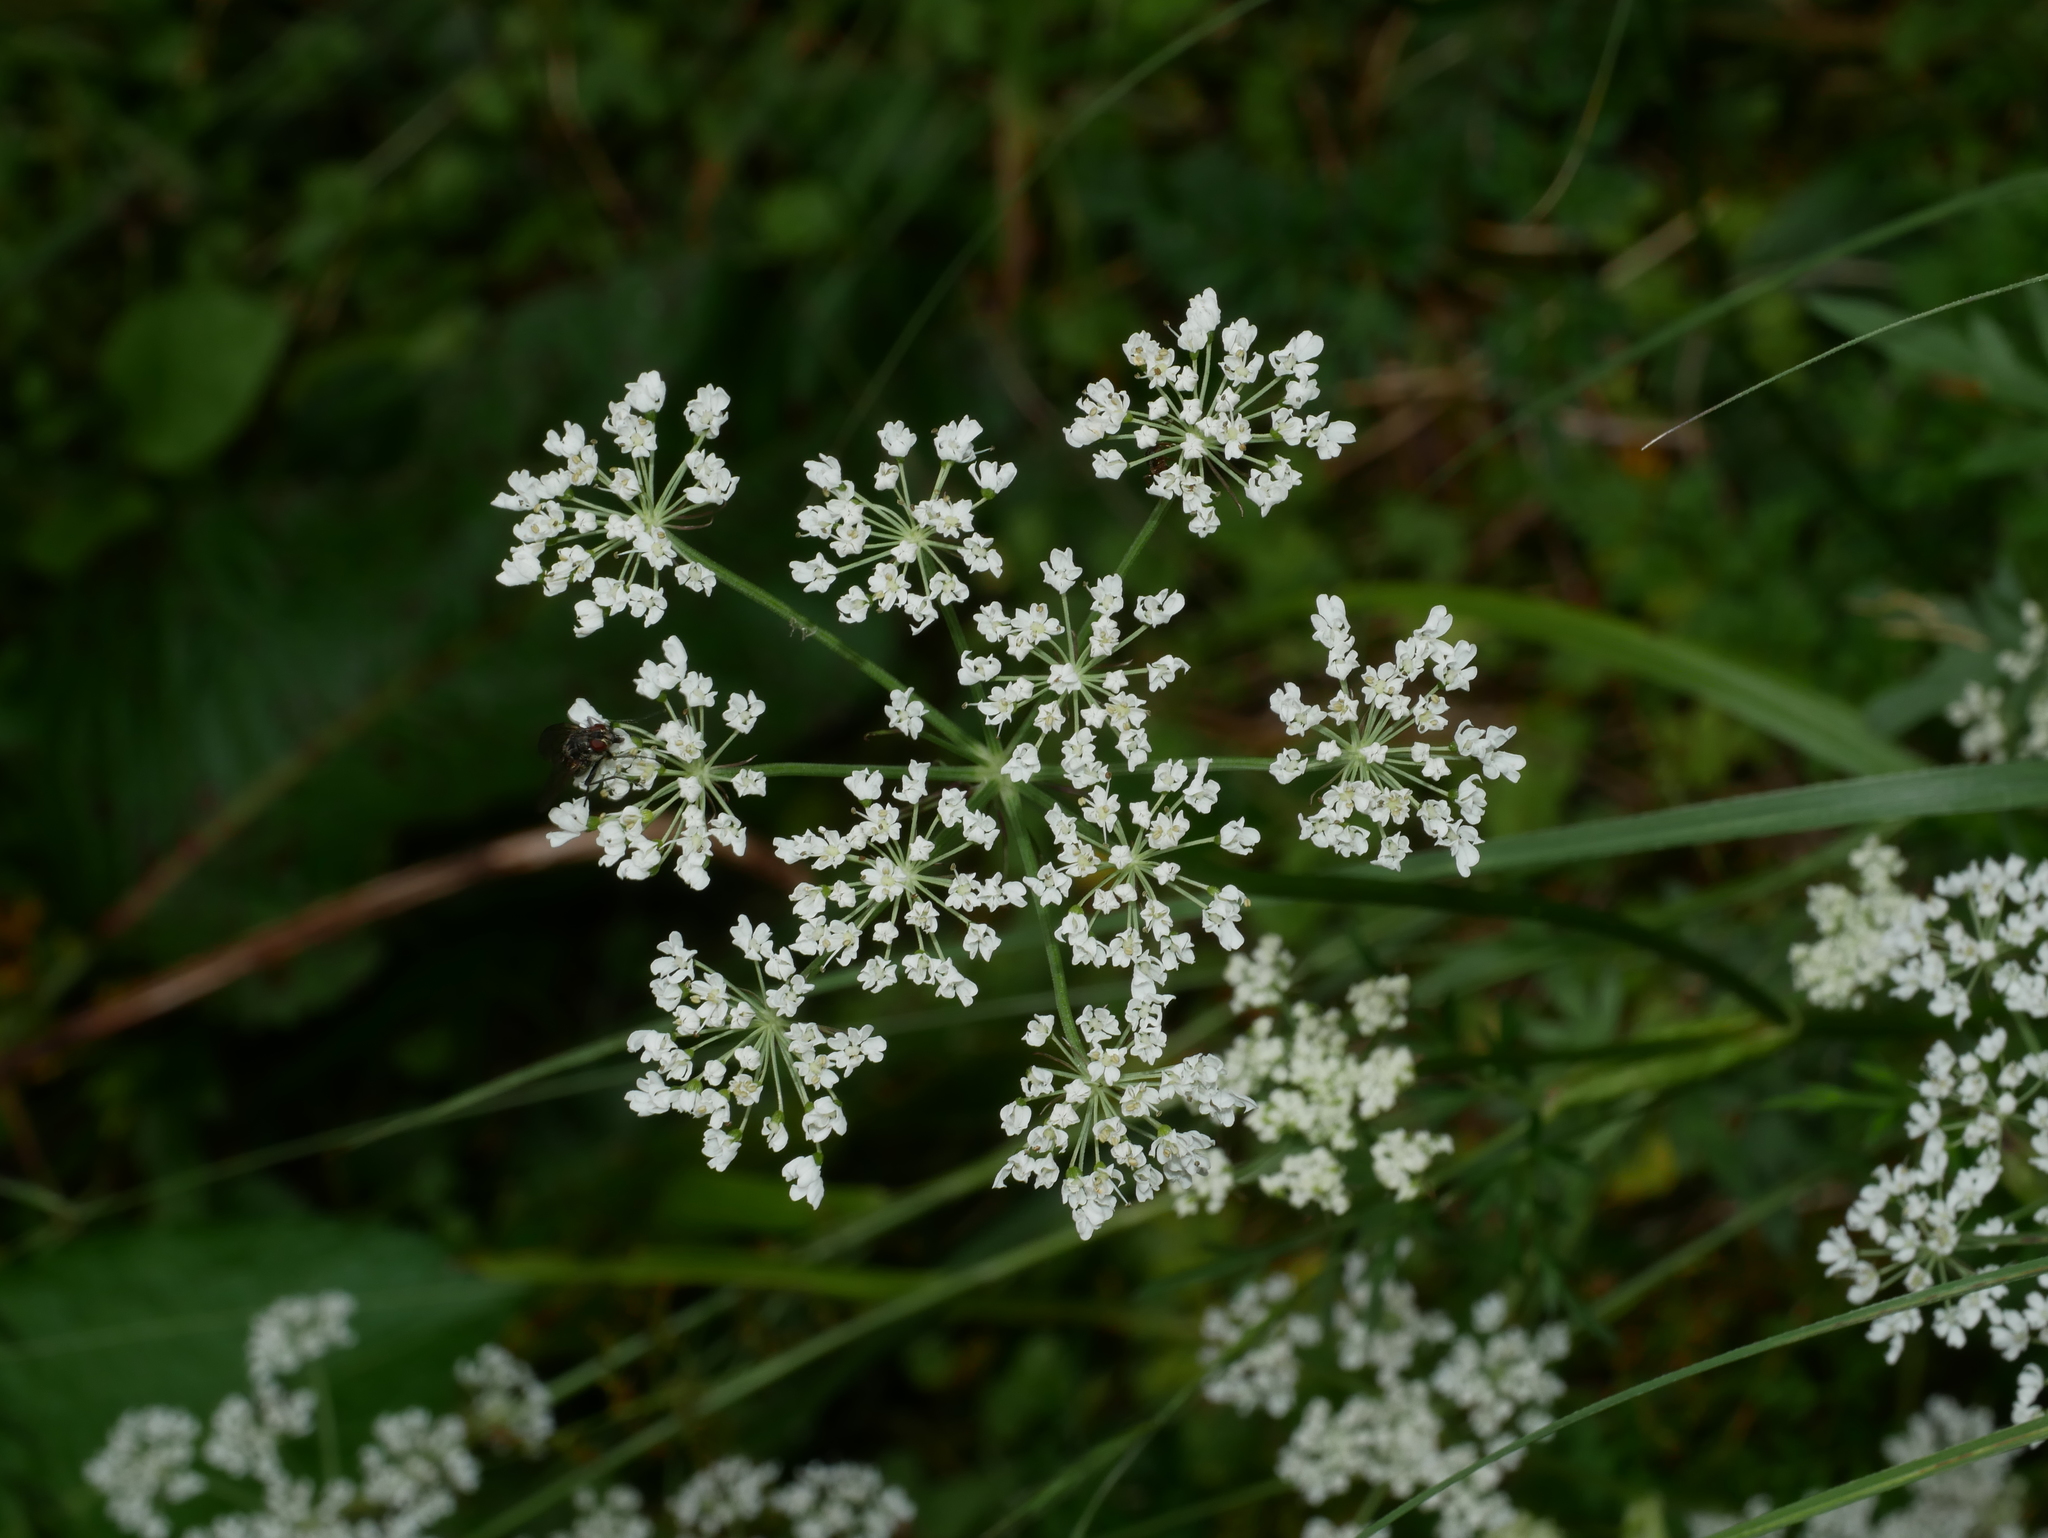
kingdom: Plantae
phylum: Tracheophyta
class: Magnoliopsida
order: Apiales
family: Apiaceae
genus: Conioselinum
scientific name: Conioselinum morrisonense
